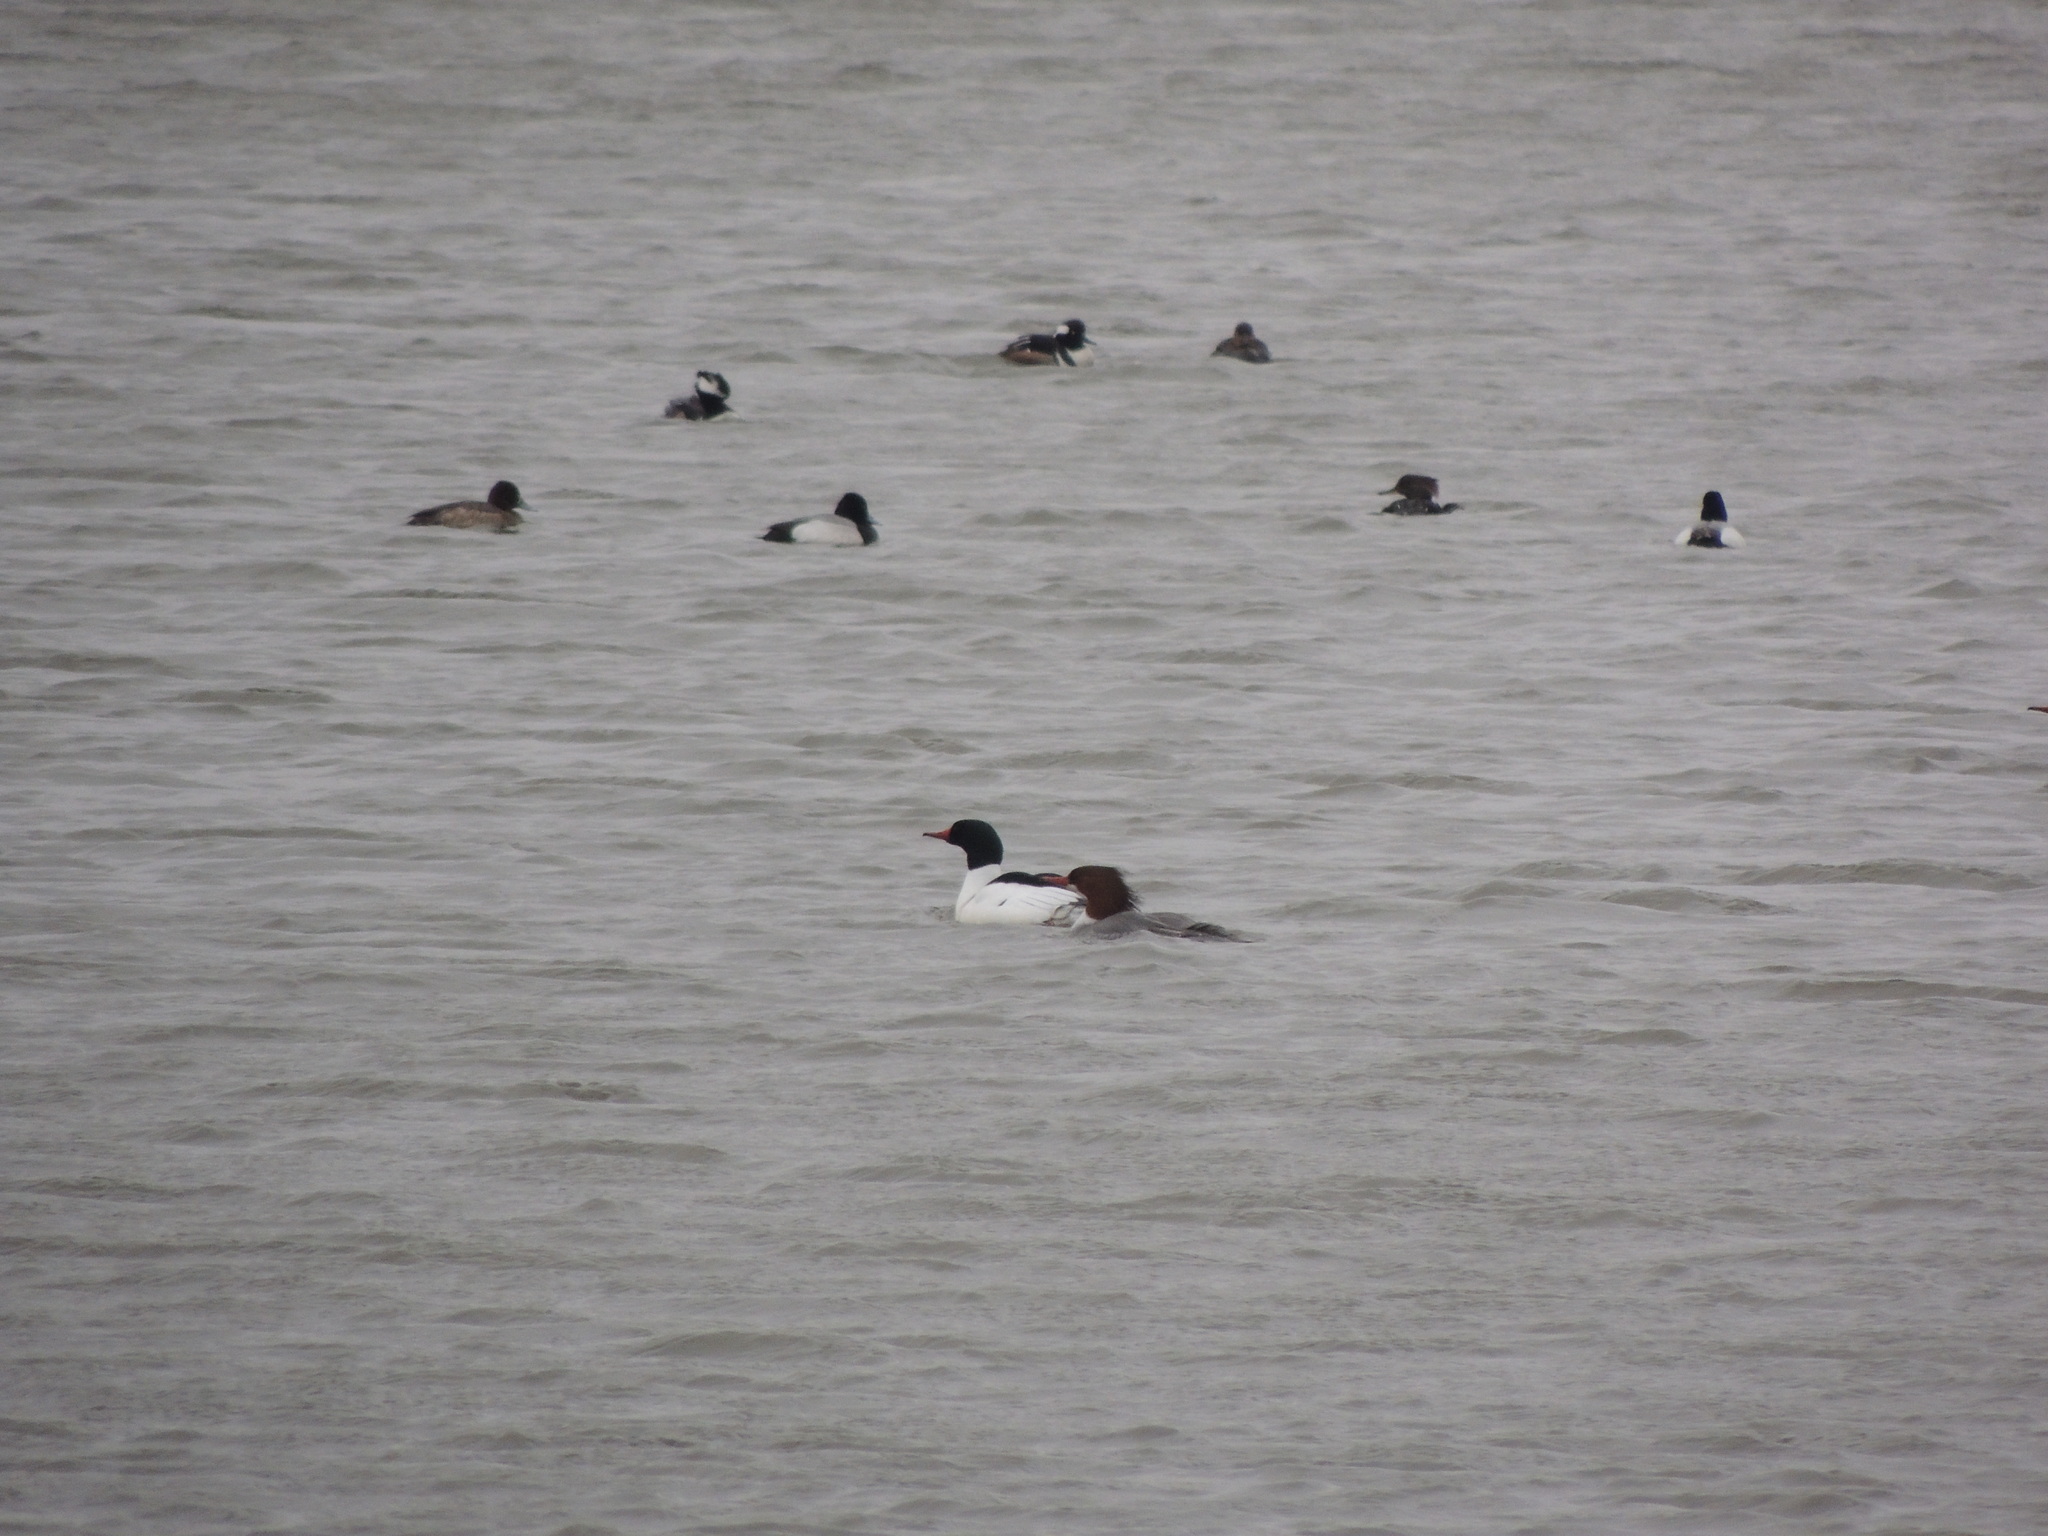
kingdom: Animalia
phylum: Chordata
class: Aves
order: Anseriformes
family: Anatidae
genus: Mergus
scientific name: Mergus merganser
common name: Common merganser
